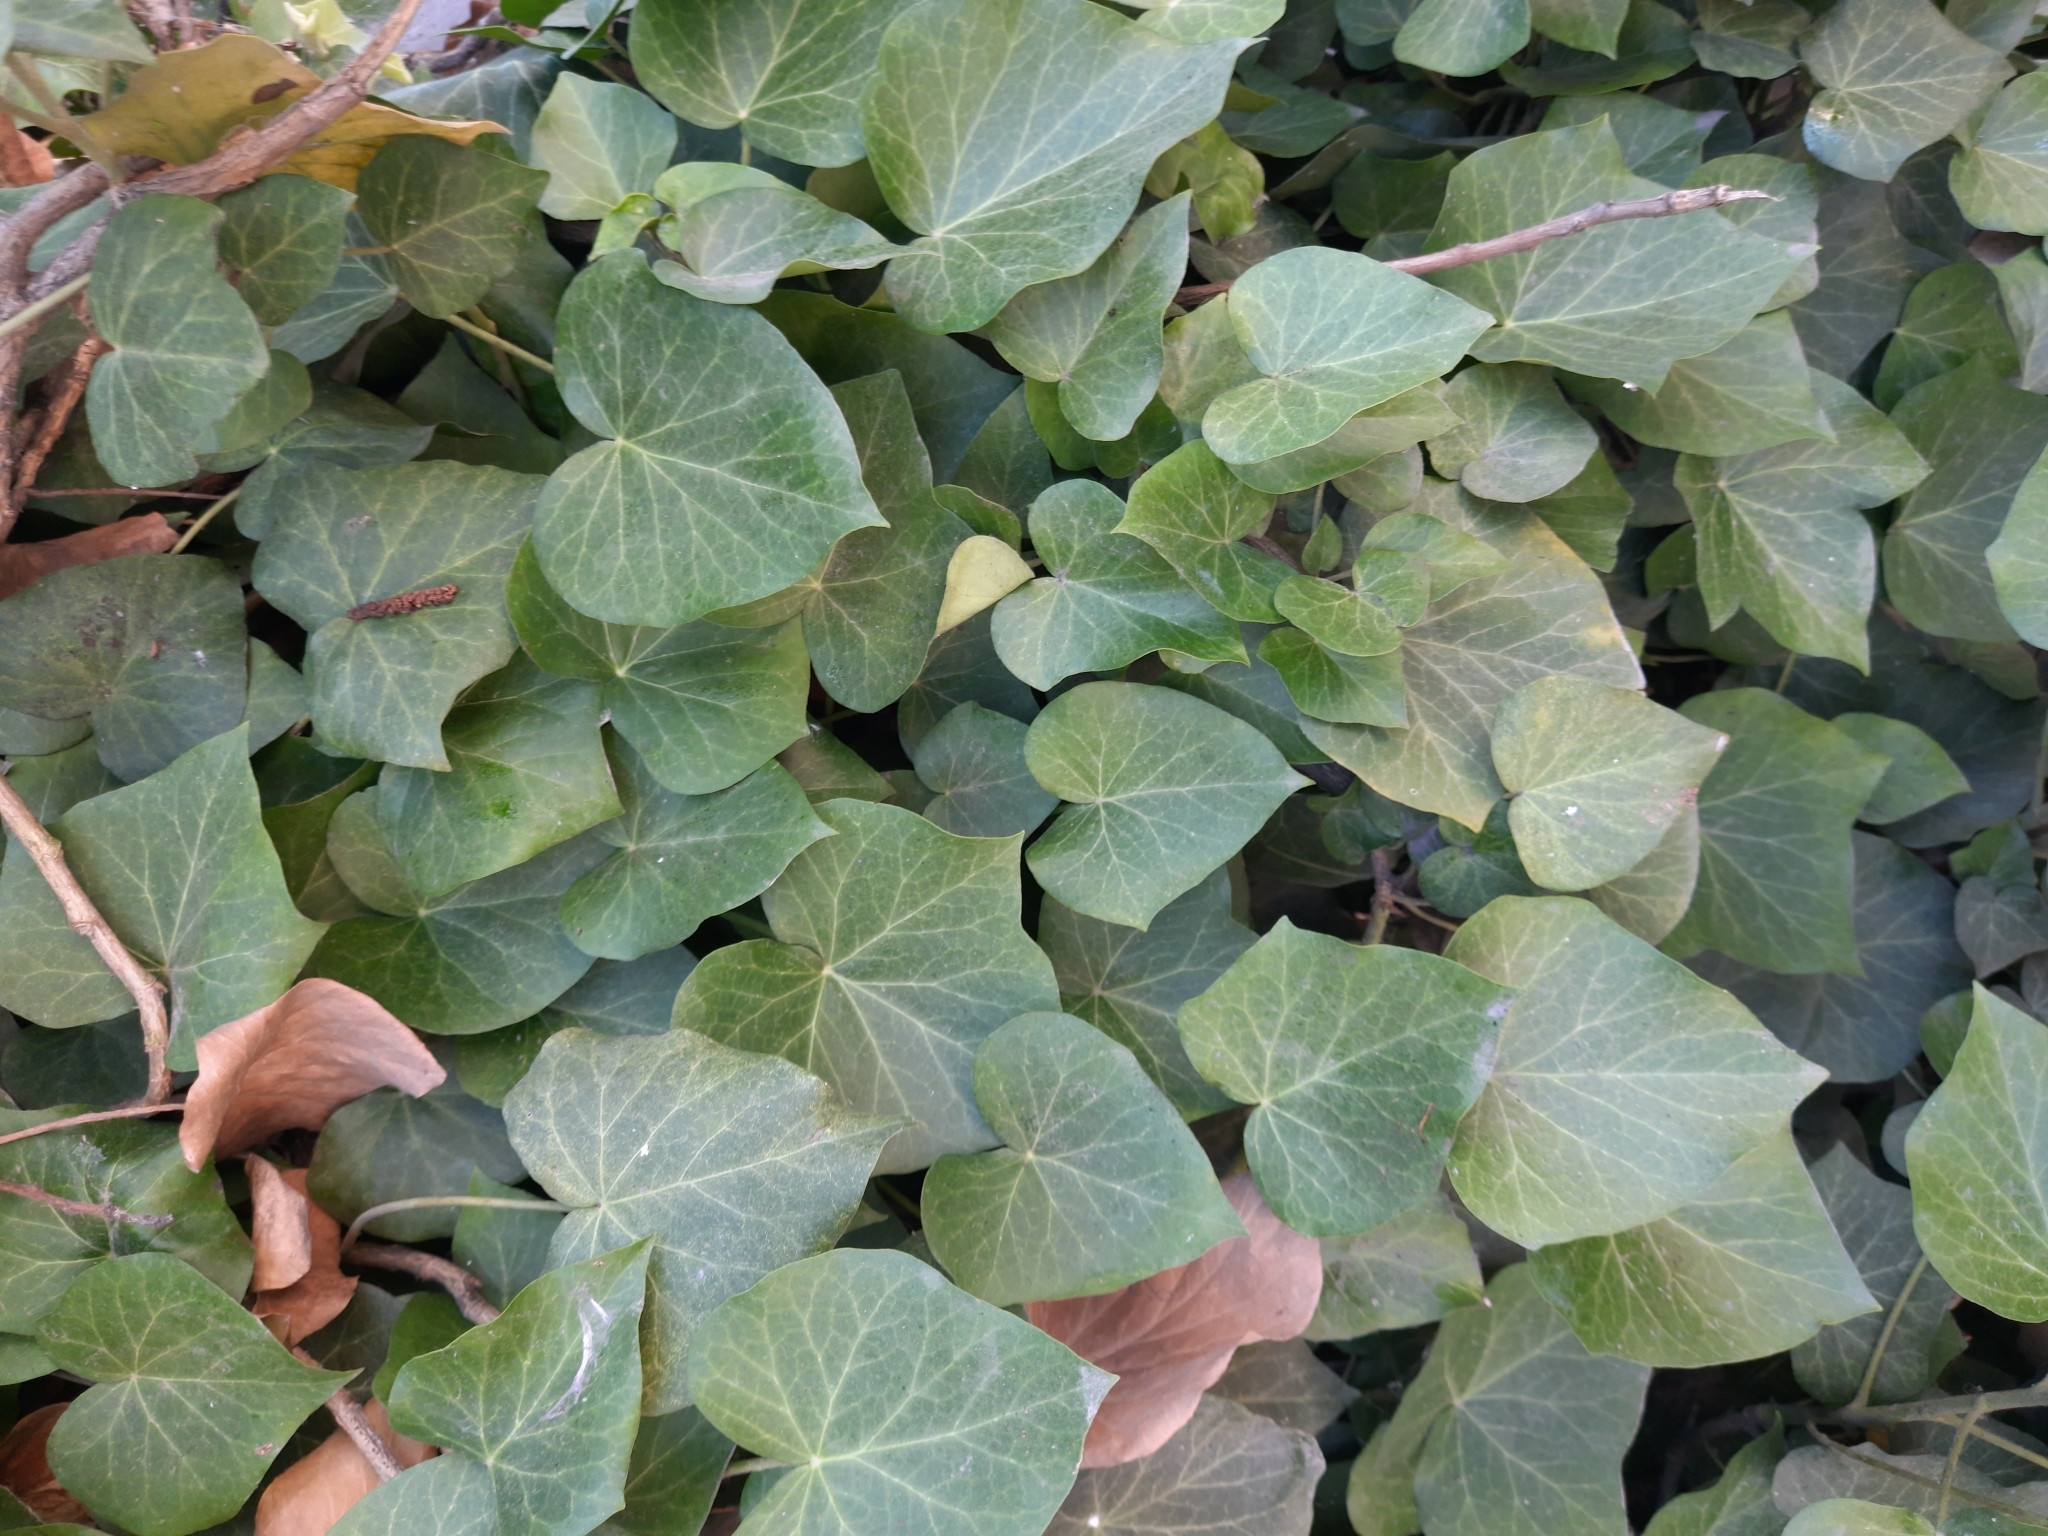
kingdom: Plantae
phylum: Tracheophyta
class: Magnoliopsida
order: Apiales
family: Araliaceae
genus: Hedera
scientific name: Hedera helix
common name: Ivy
